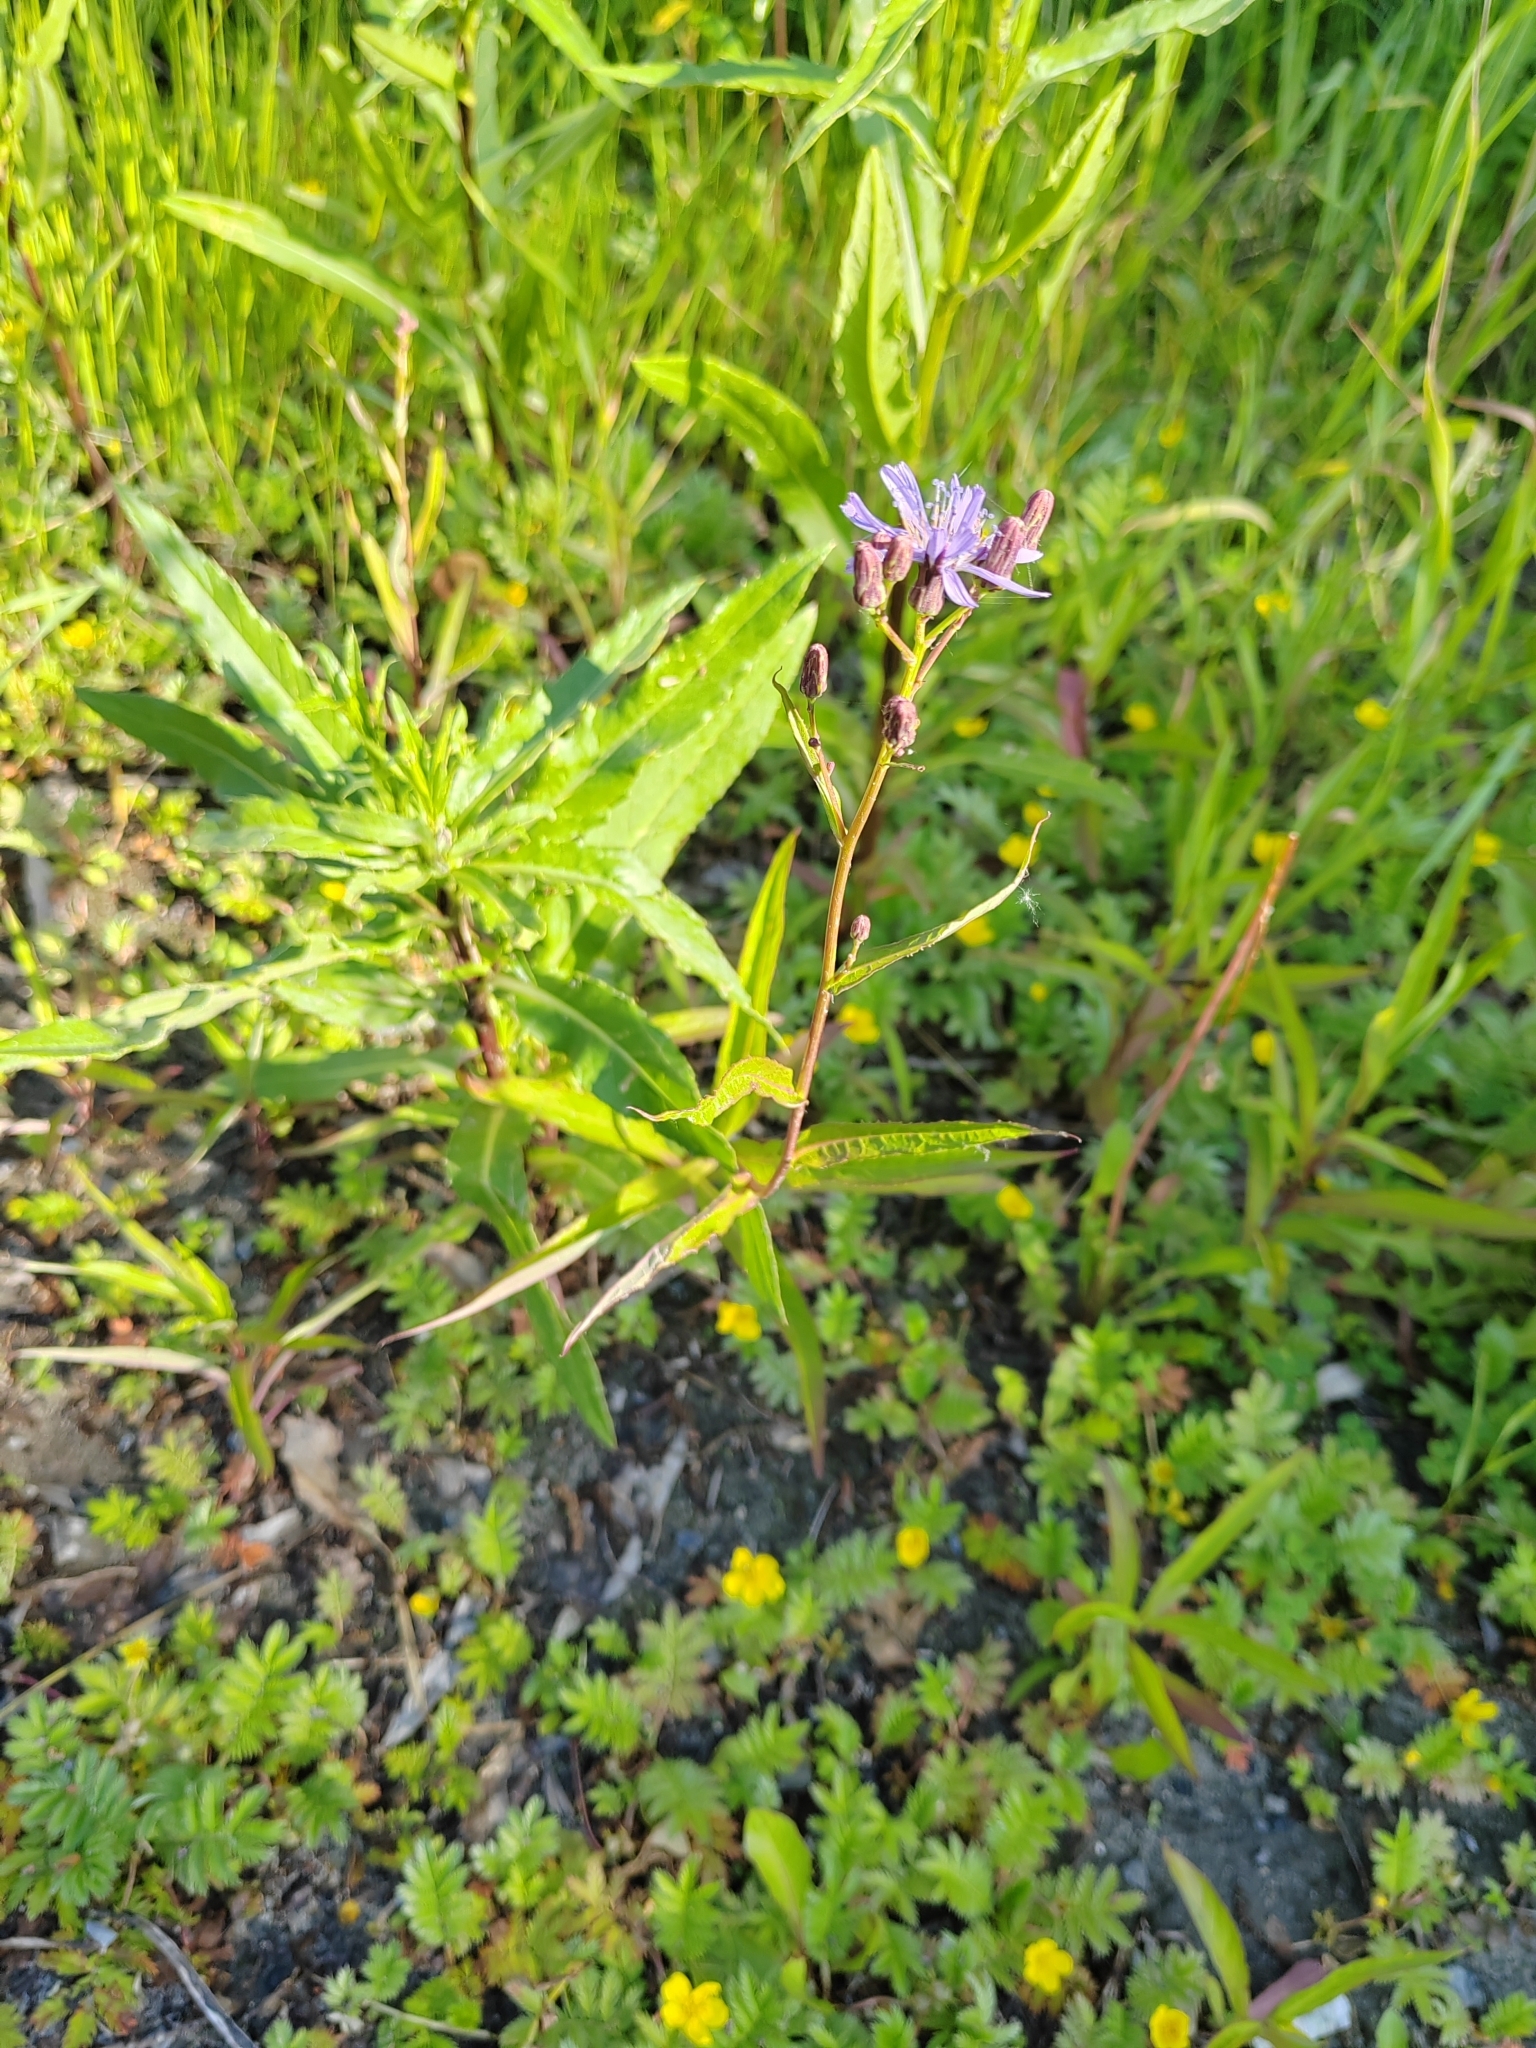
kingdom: Plantae
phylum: Tracheophyta
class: Magnoliopsida
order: Asterales
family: Asteraceae
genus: Lactuca
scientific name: Lactuca sibirica
